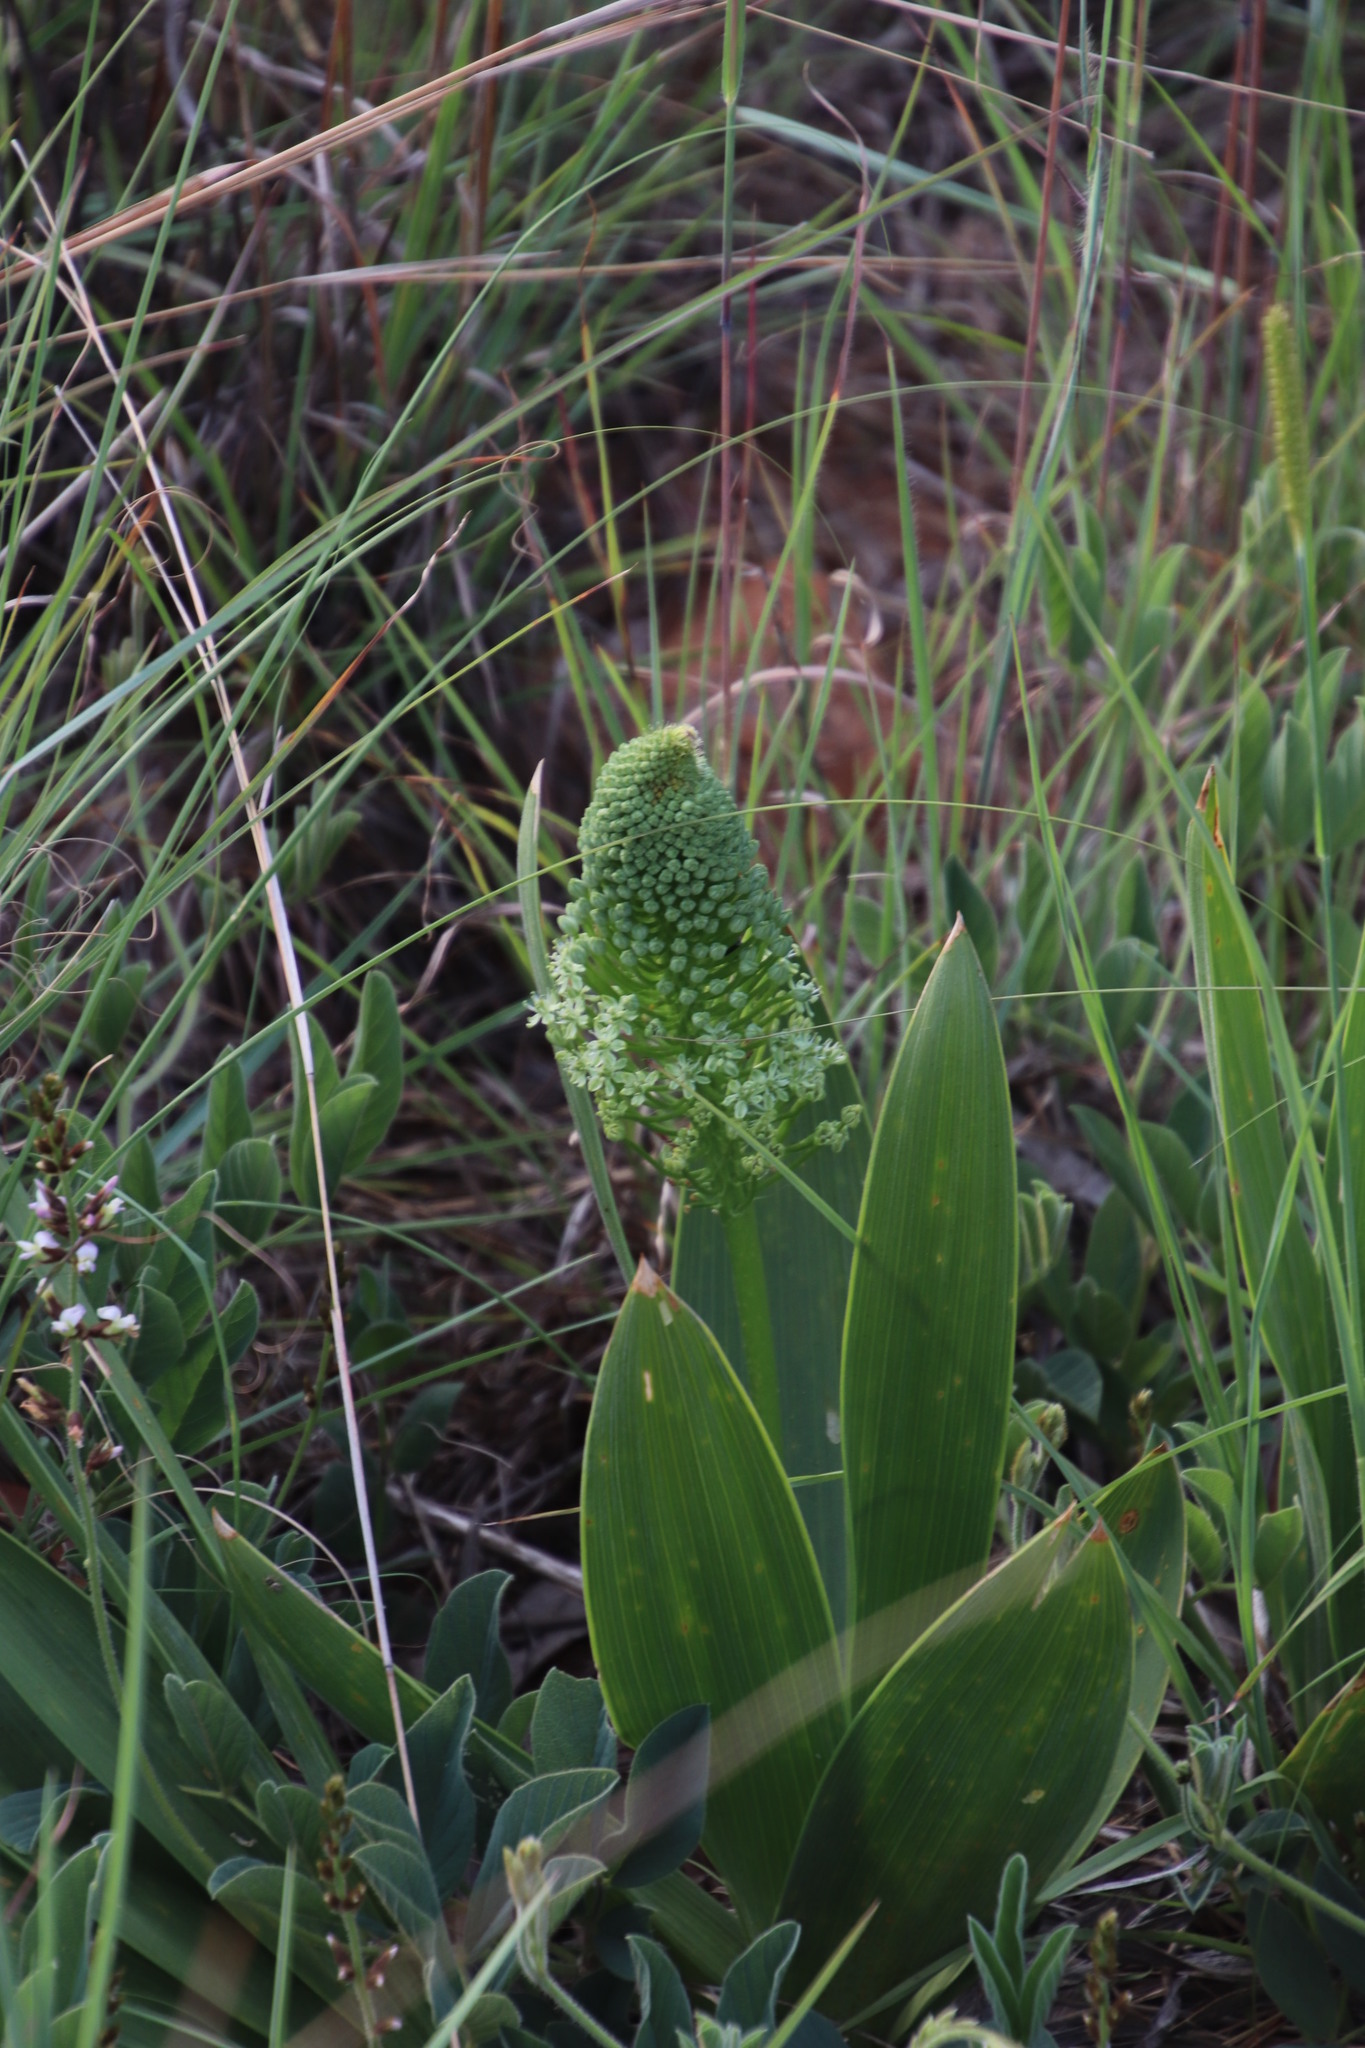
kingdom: Plantae
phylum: Tracheophyta
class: Liliopsida
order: Asparagales
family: Asparagaceae
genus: Schizocarphus
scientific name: Schizocarphus nervosus
